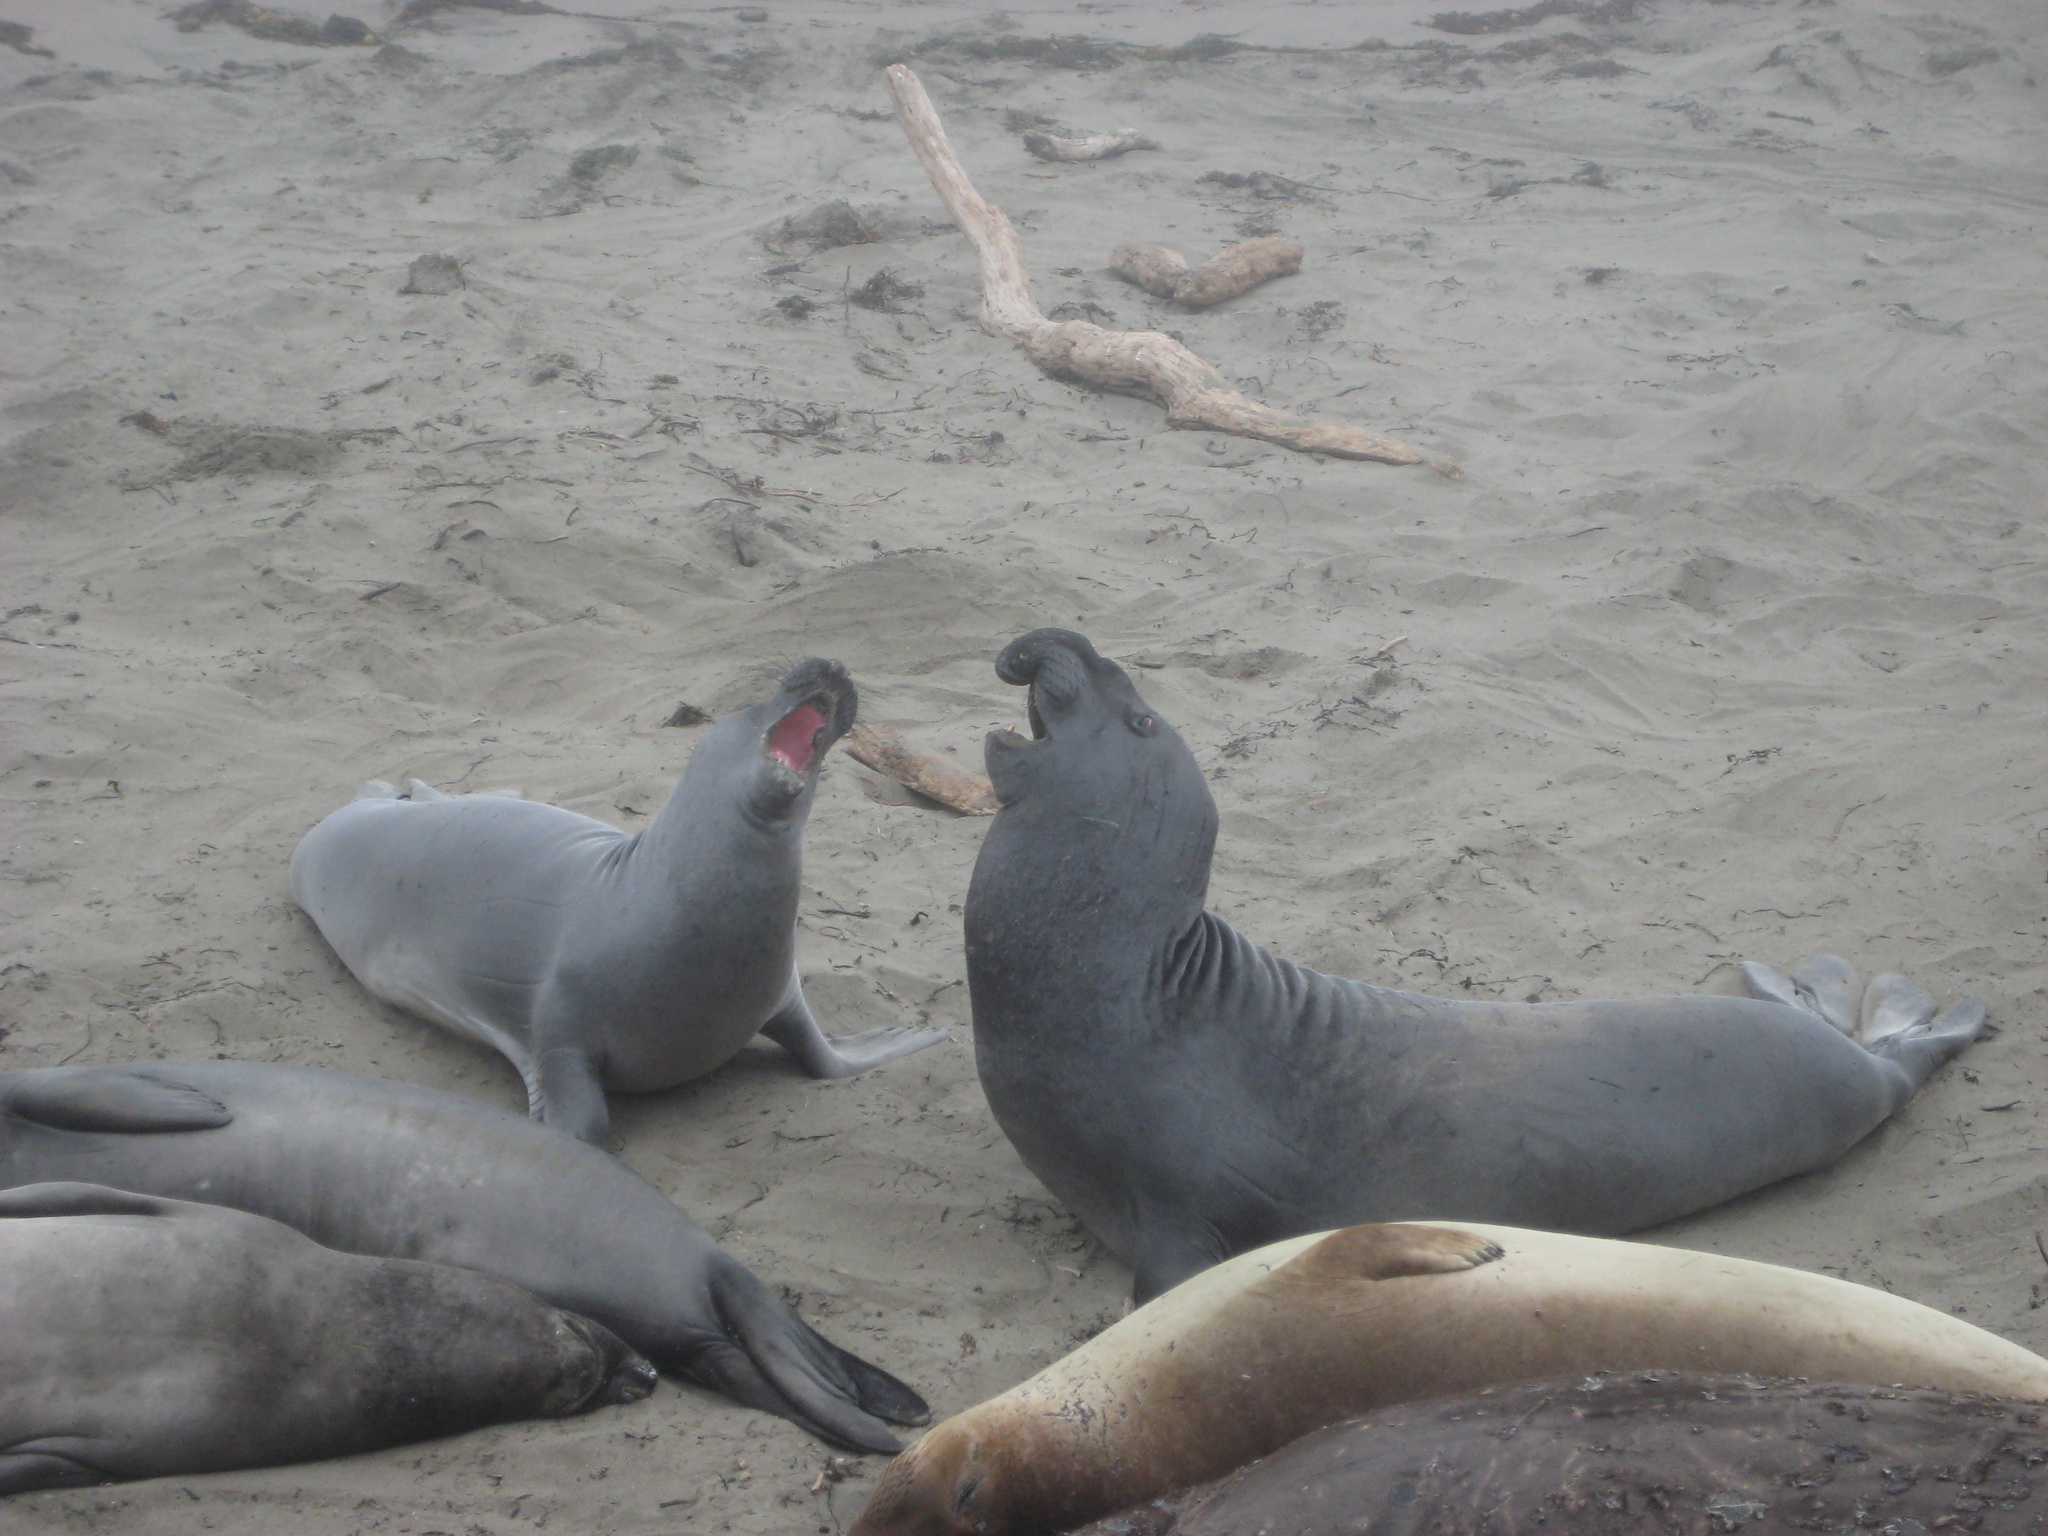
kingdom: Animalia
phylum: Chordata
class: Mammalia
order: Carnivora
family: Phocidae
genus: Mirounga
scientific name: Mirounga angustirostris
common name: Northern elephant seal
